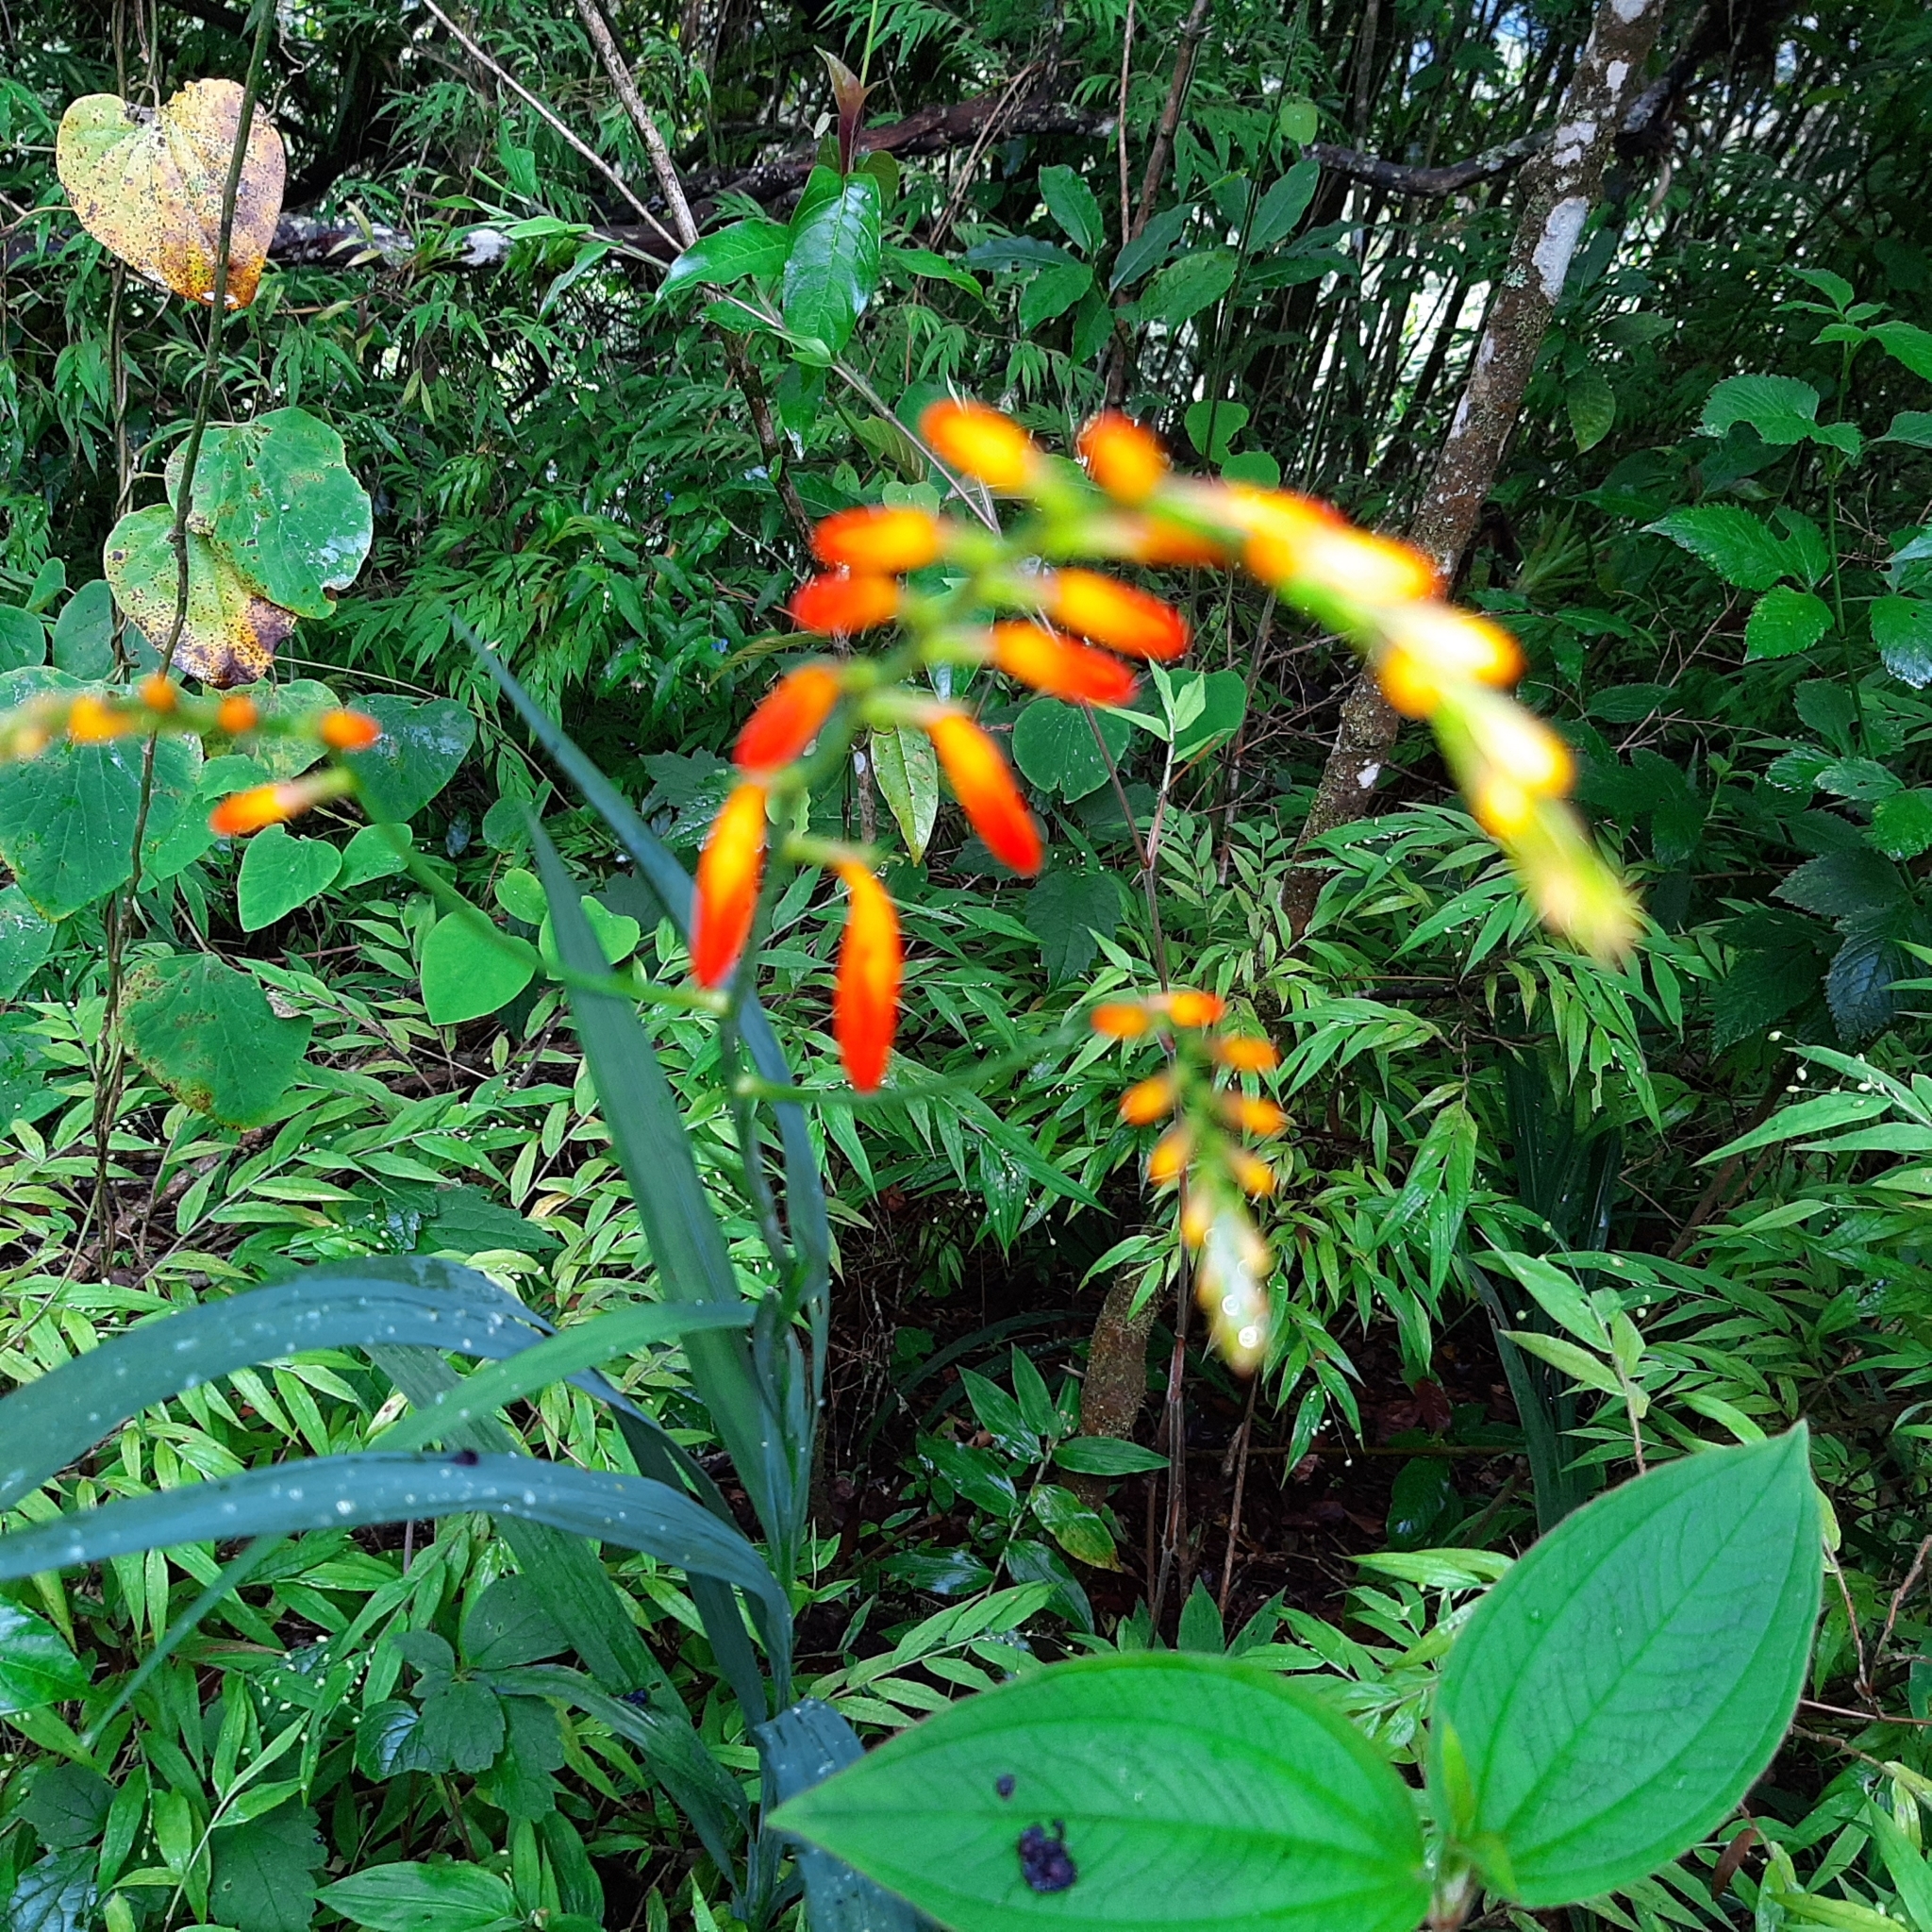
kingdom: Plantae
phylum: Tracheophyta
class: Liliopsida
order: Asparagales
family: Iridaceae
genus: Crocosmia
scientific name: Crocosmia crocosmiiflora
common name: Montbretia
